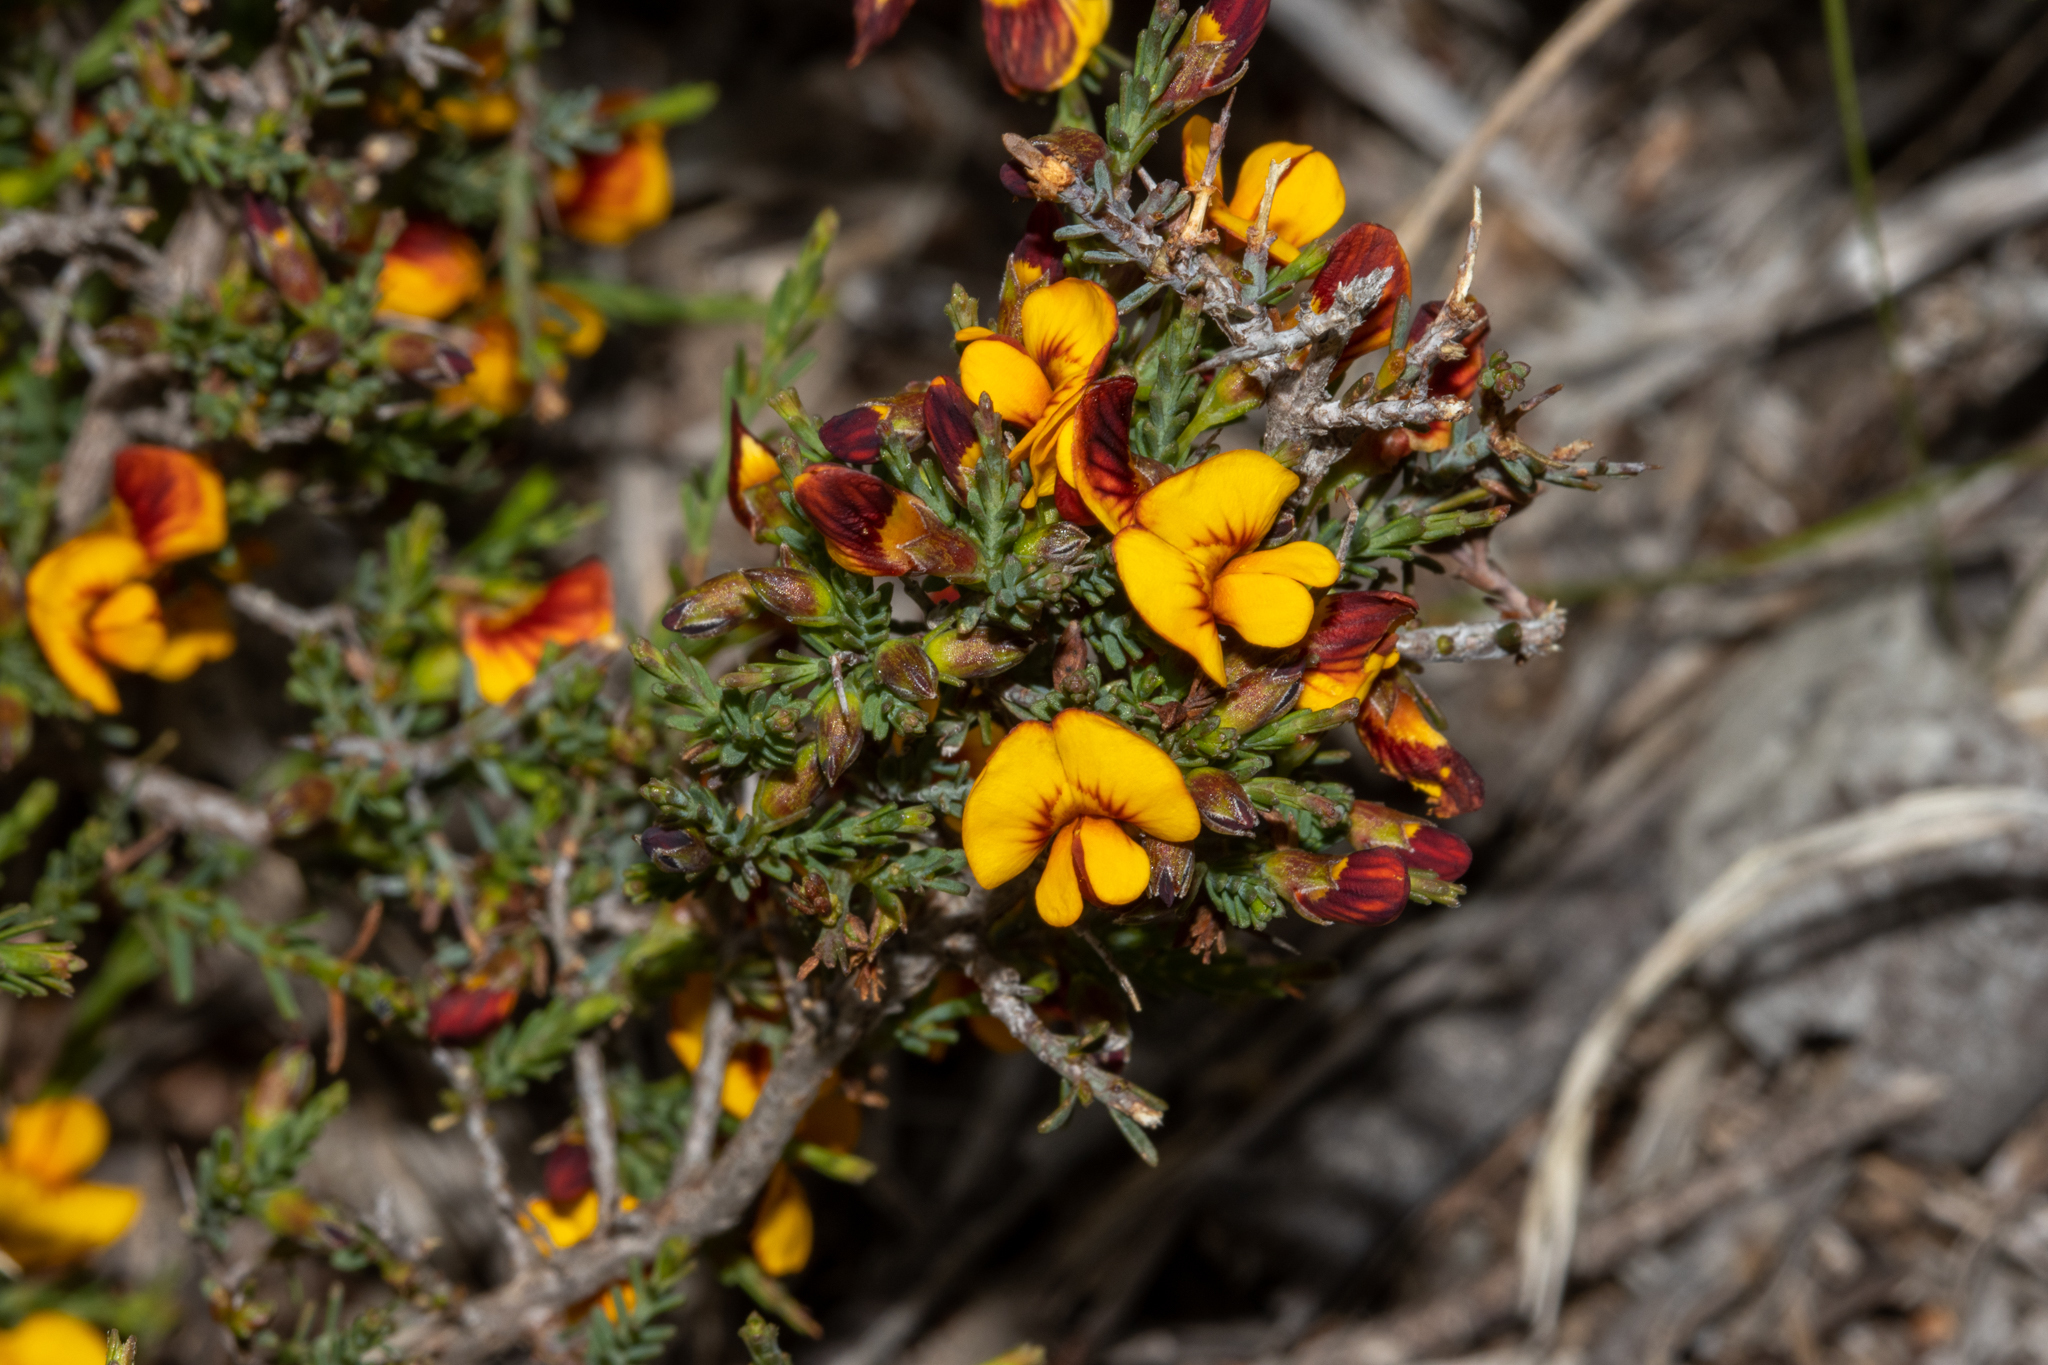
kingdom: Plantae
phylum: Tracheophyta
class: Magnoliopsida
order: Fabales
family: Fabaceae
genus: Eutaxia
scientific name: Eutaxia microphylla
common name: Mallee bush-pea
